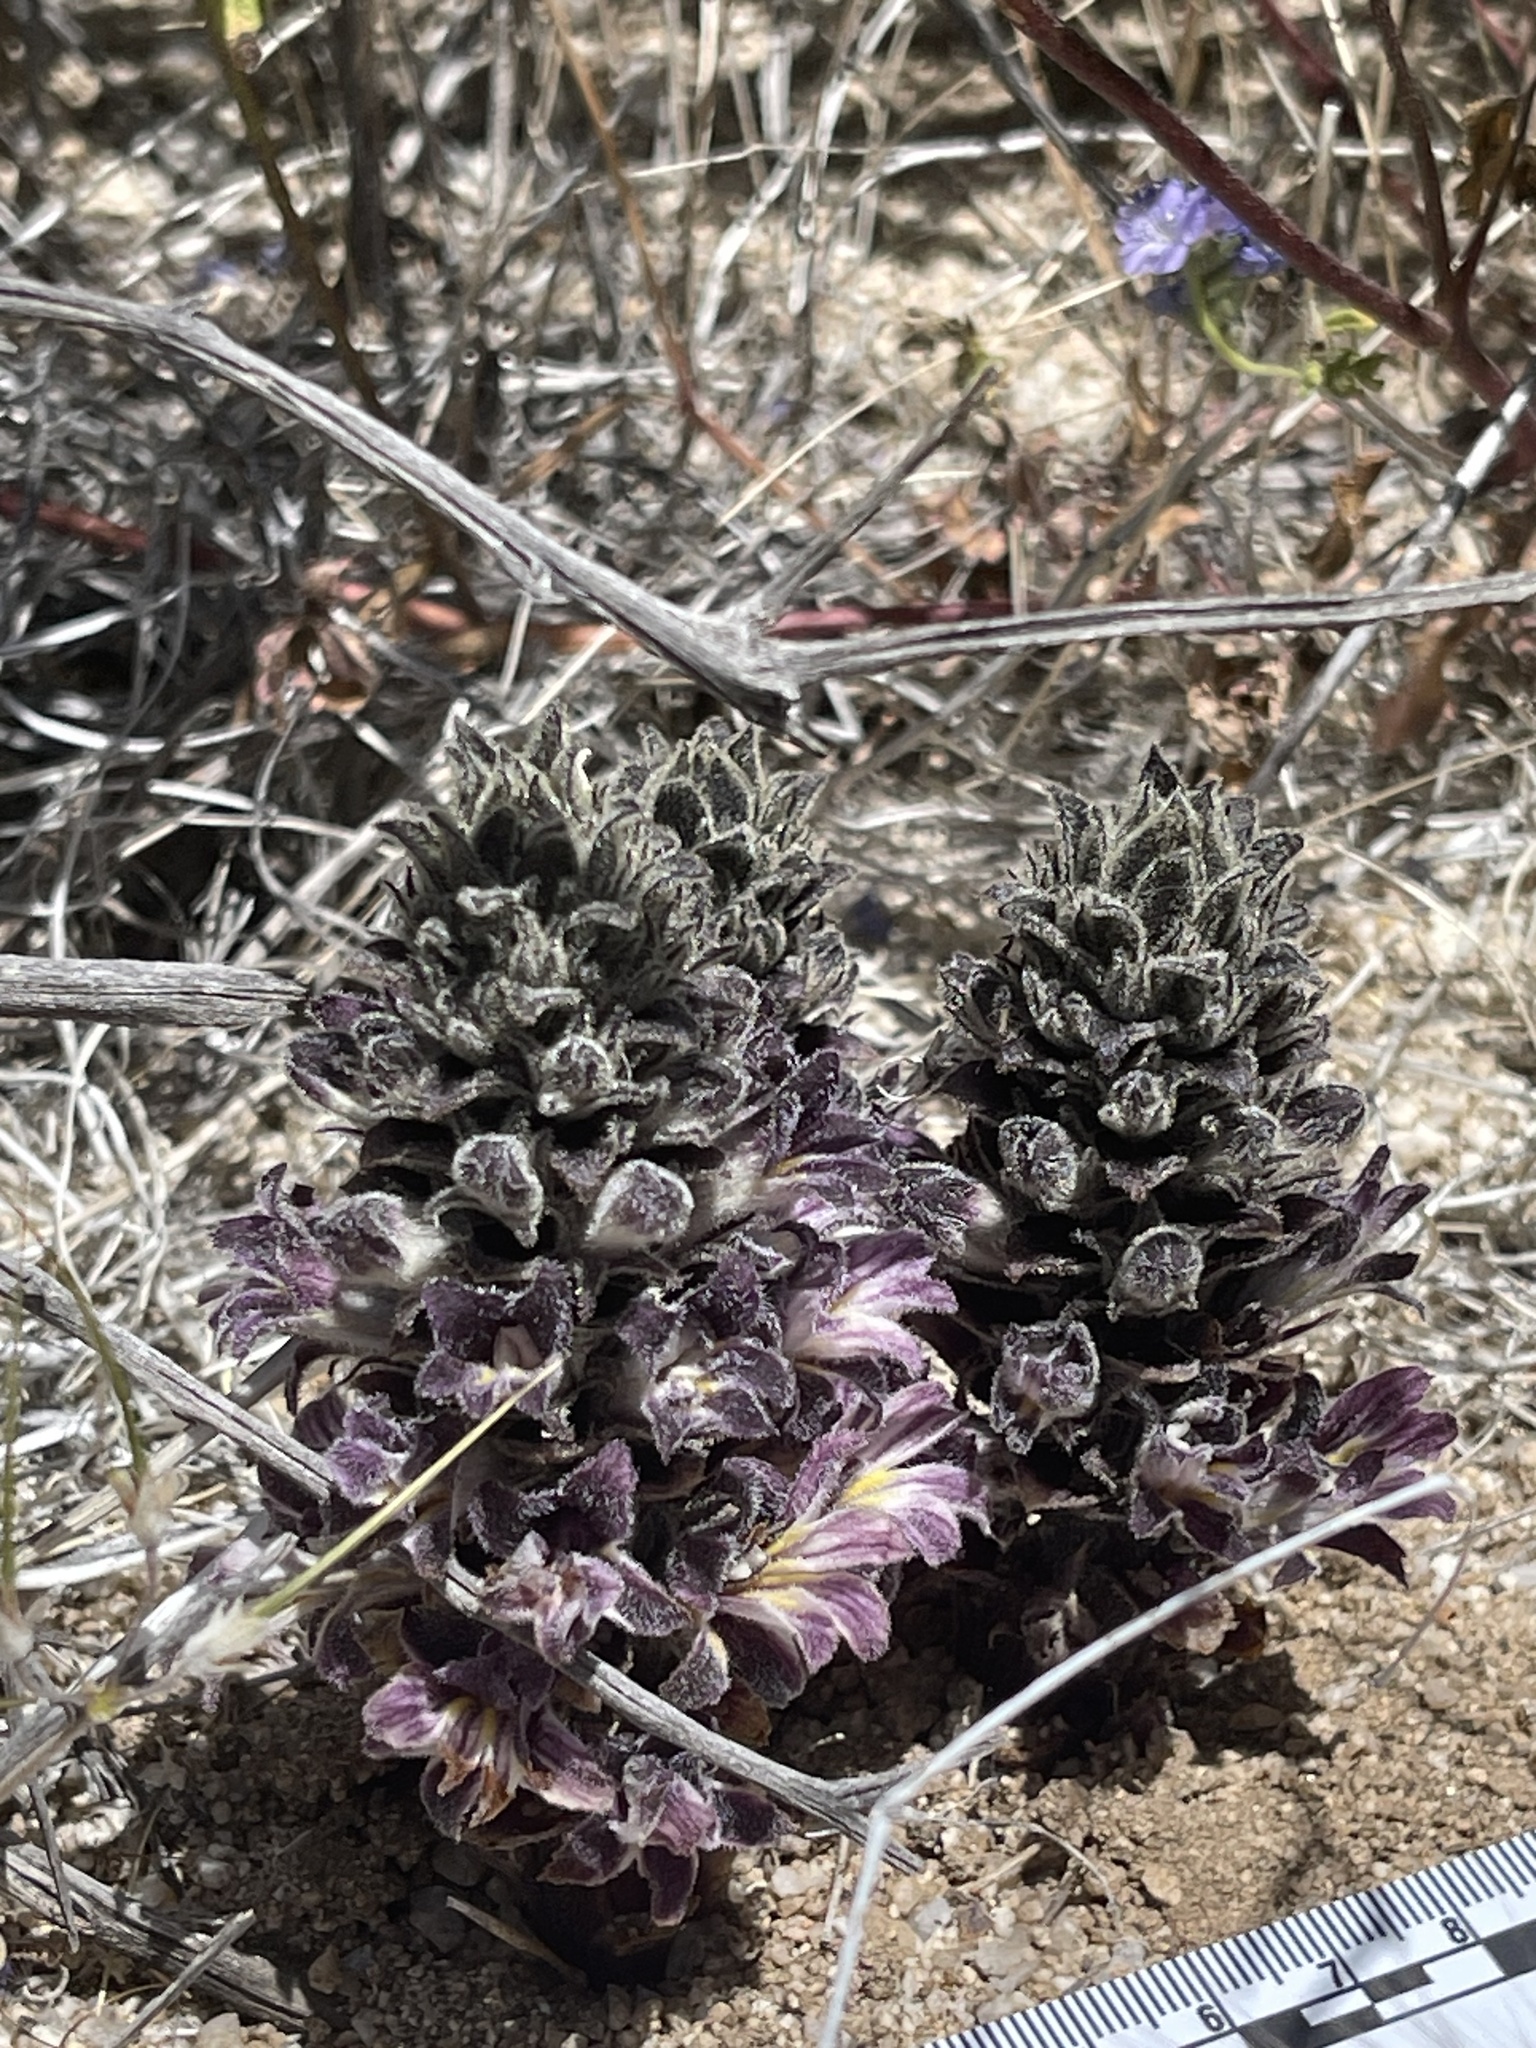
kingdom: Plantae
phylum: Tracheophyta
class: Magnoliopsida
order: Lamiales
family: Orobanchaceae
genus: Aphyllon
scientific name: Aphyllon cooperi
